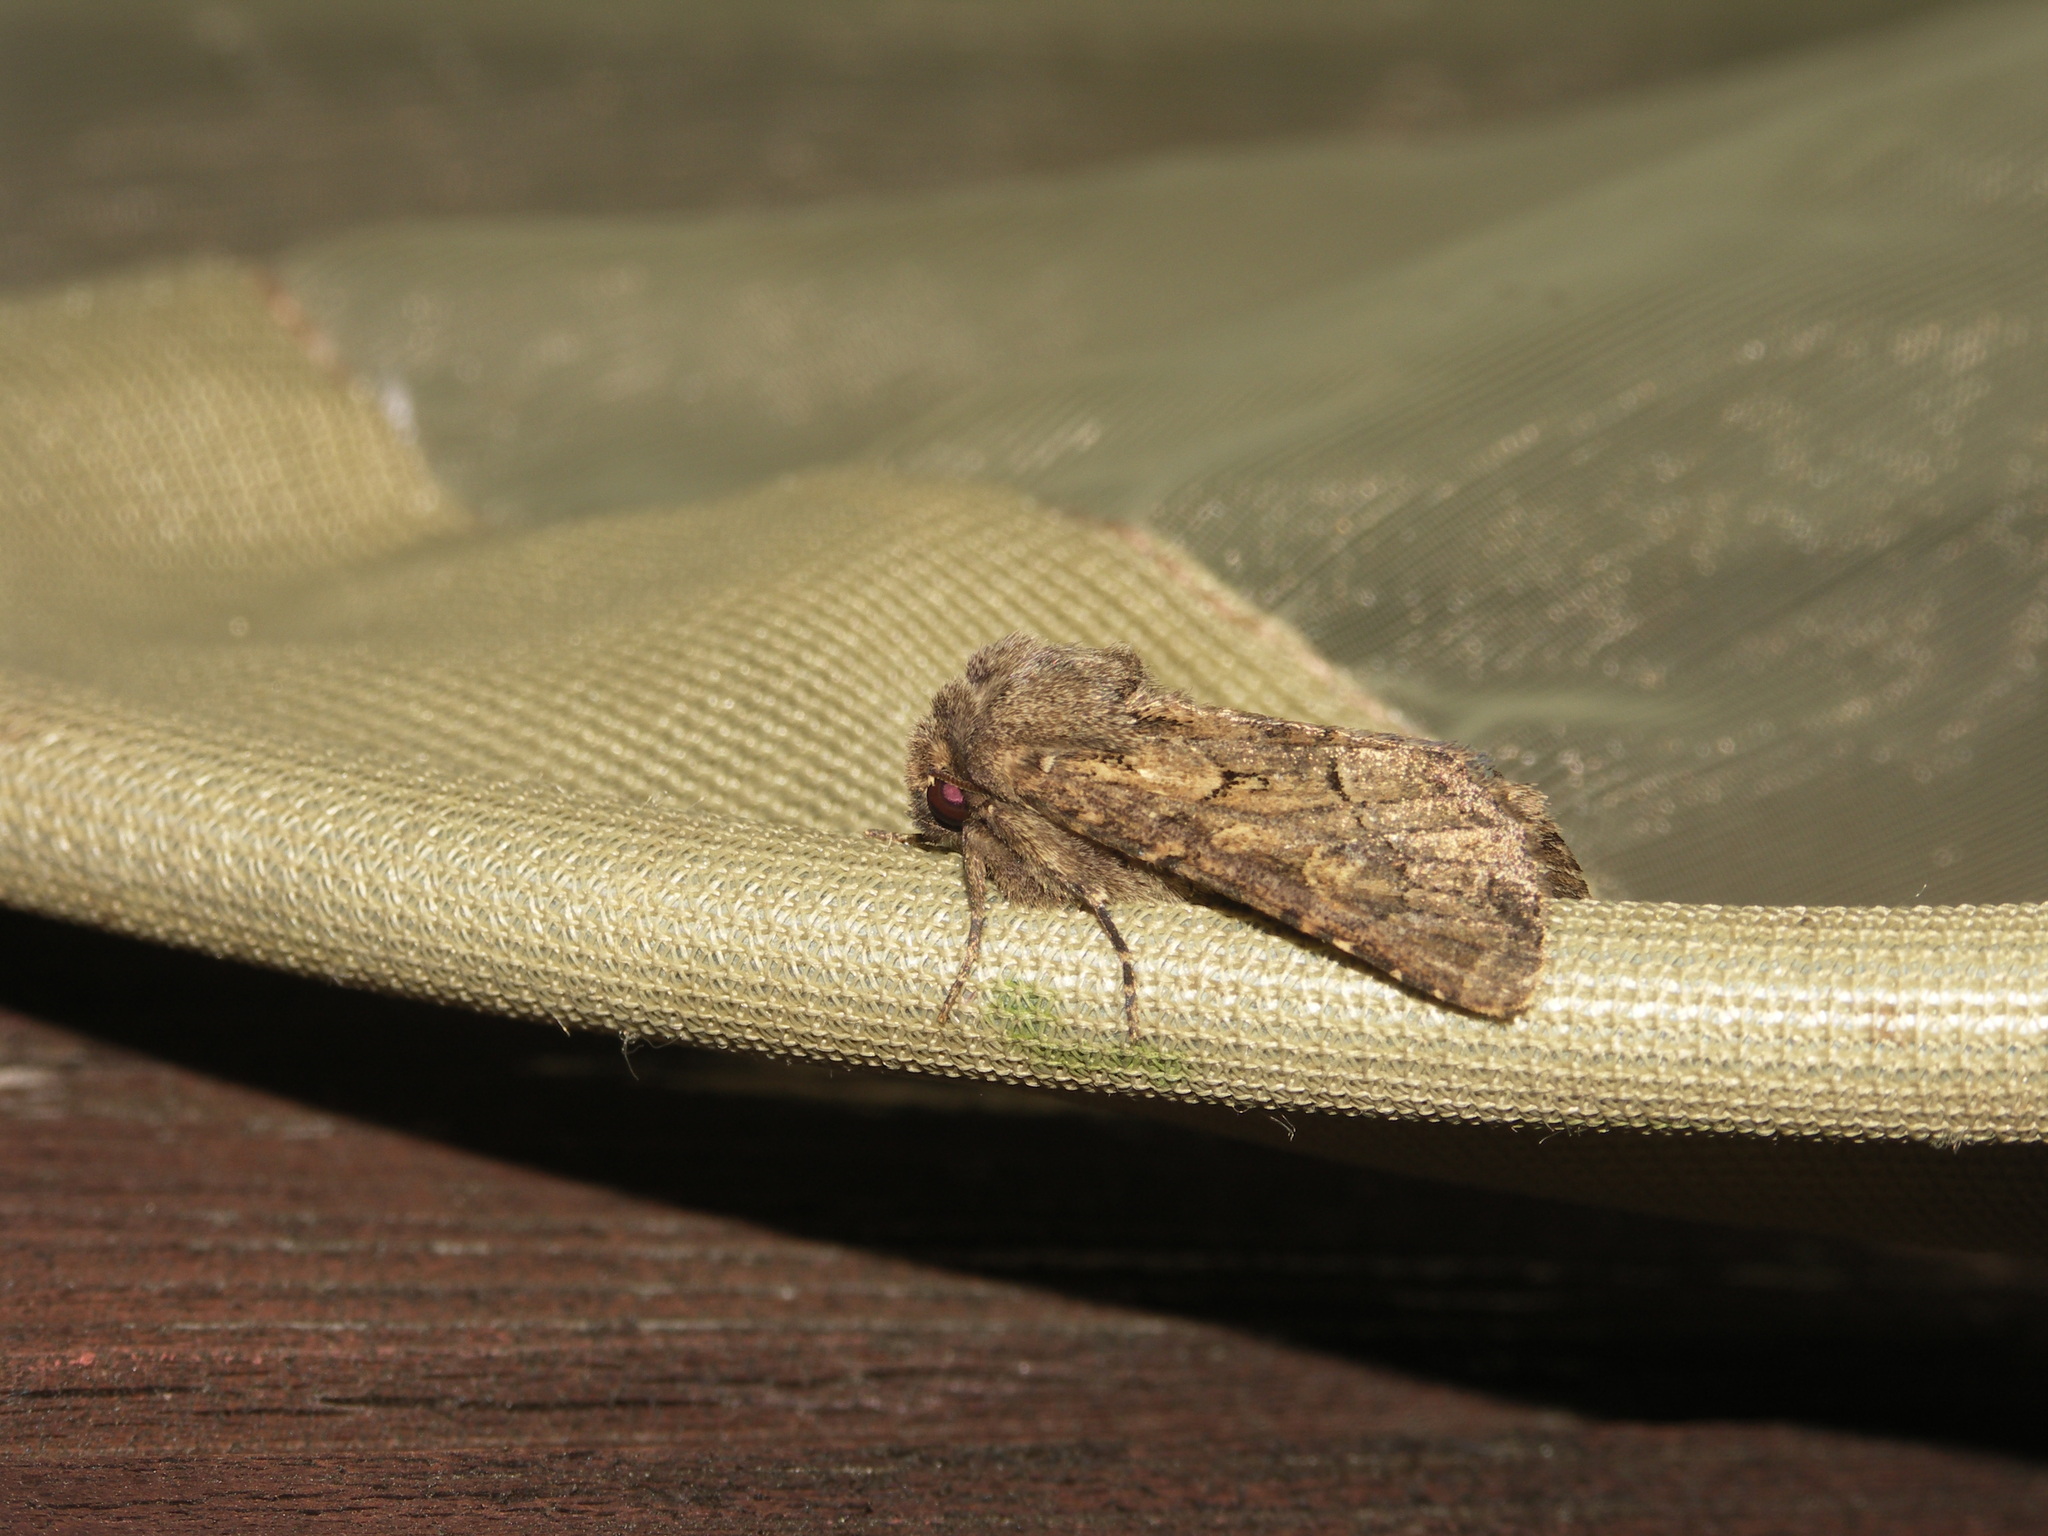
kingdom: Animalia
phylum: Arthropoda
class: Insecta
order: Lepidoptera
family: Noctuidae
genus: Luperina
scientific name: Luperina testacea
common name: Flounced rustic
